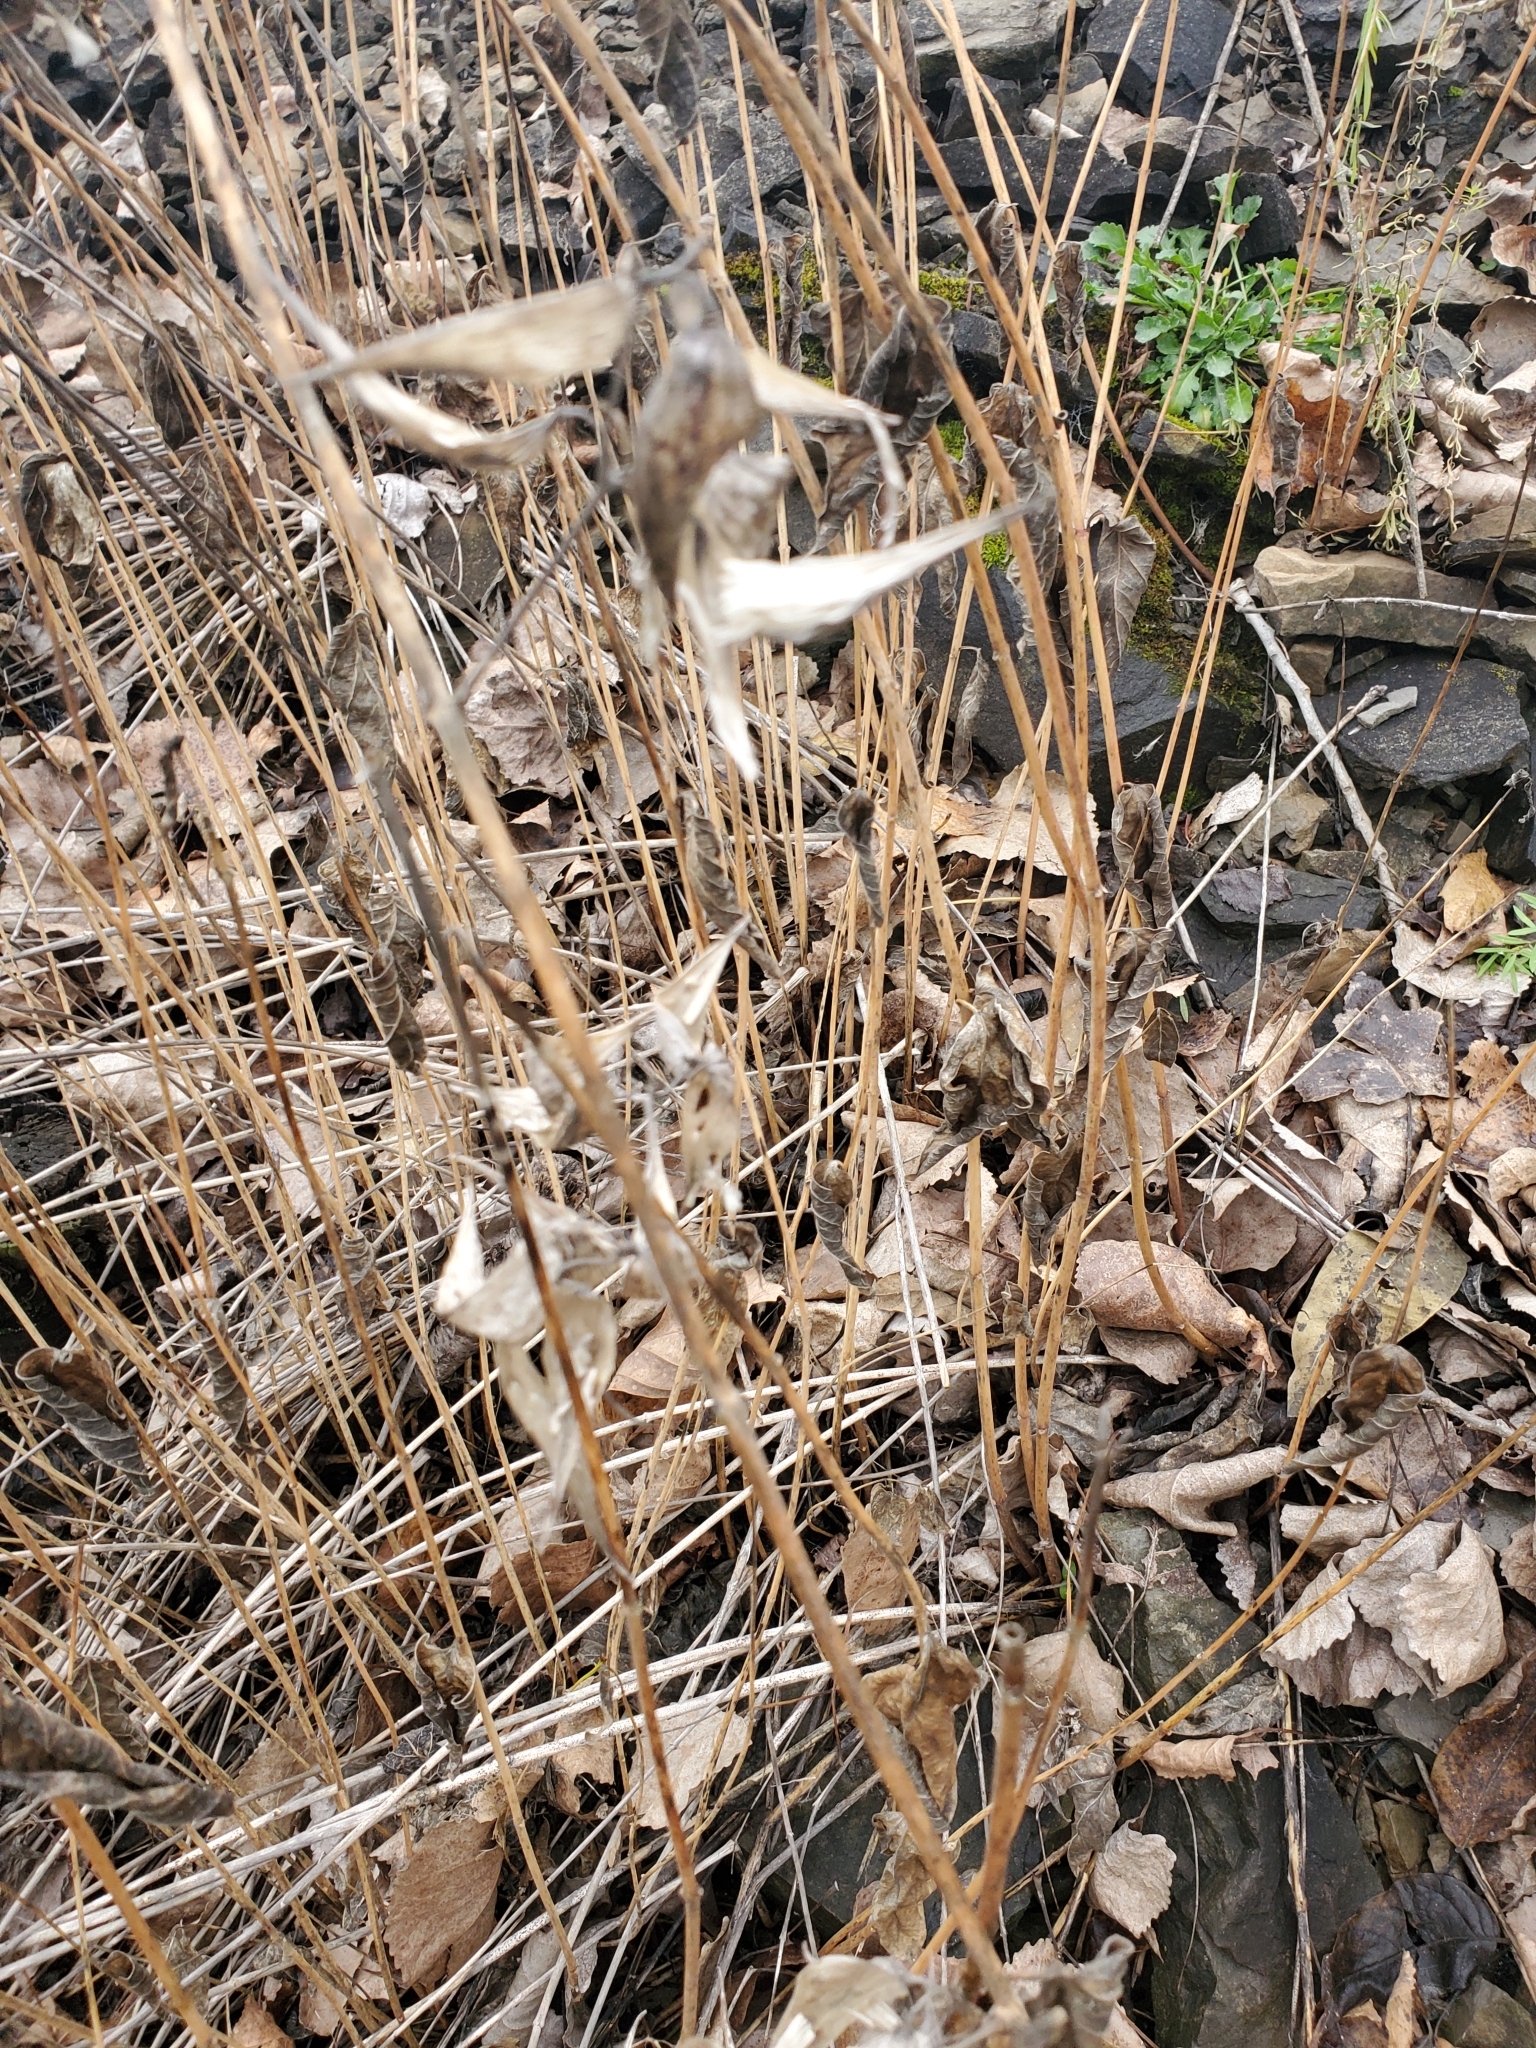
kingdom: Plantae
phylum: Tracheophyta
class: Magnoliopsida
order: Gentianales
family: Apocynaceae
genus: Asclepias
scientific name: Asclepias incarnata
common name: Swamp milkweed
